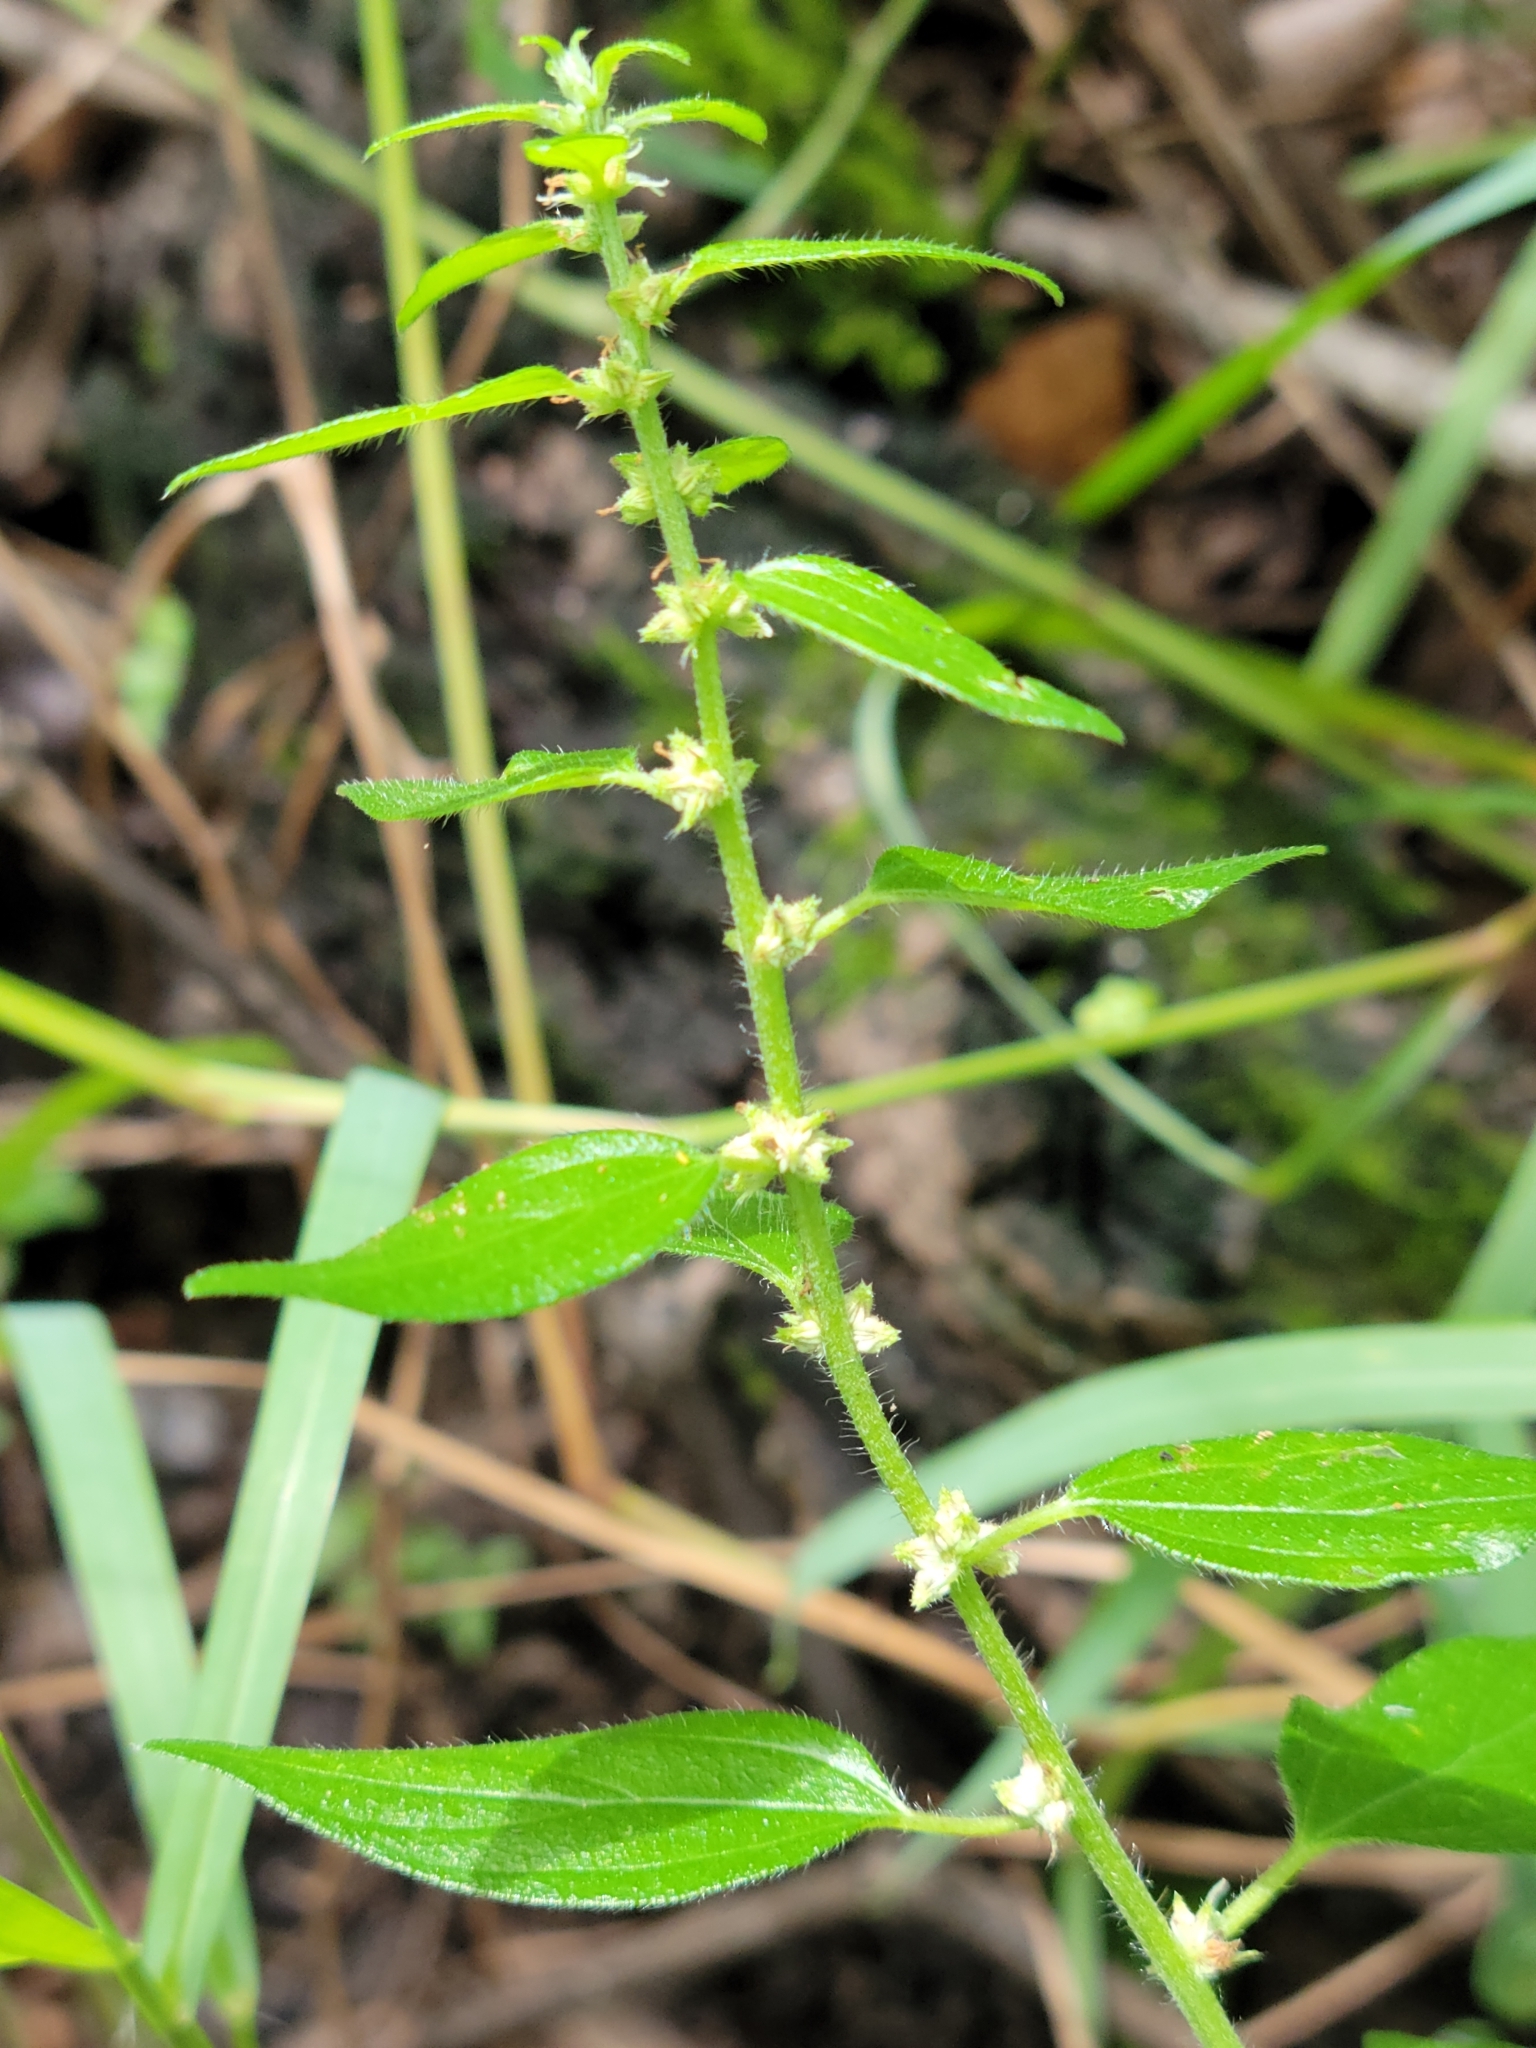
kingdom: Plantae
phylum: Tracheophyta
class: Magnoliopsida
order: Rosales
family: Urticaceae
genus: Pouzolzia
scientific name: Pouzolzia zeylanica
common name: Graceful pouzolzsbush
